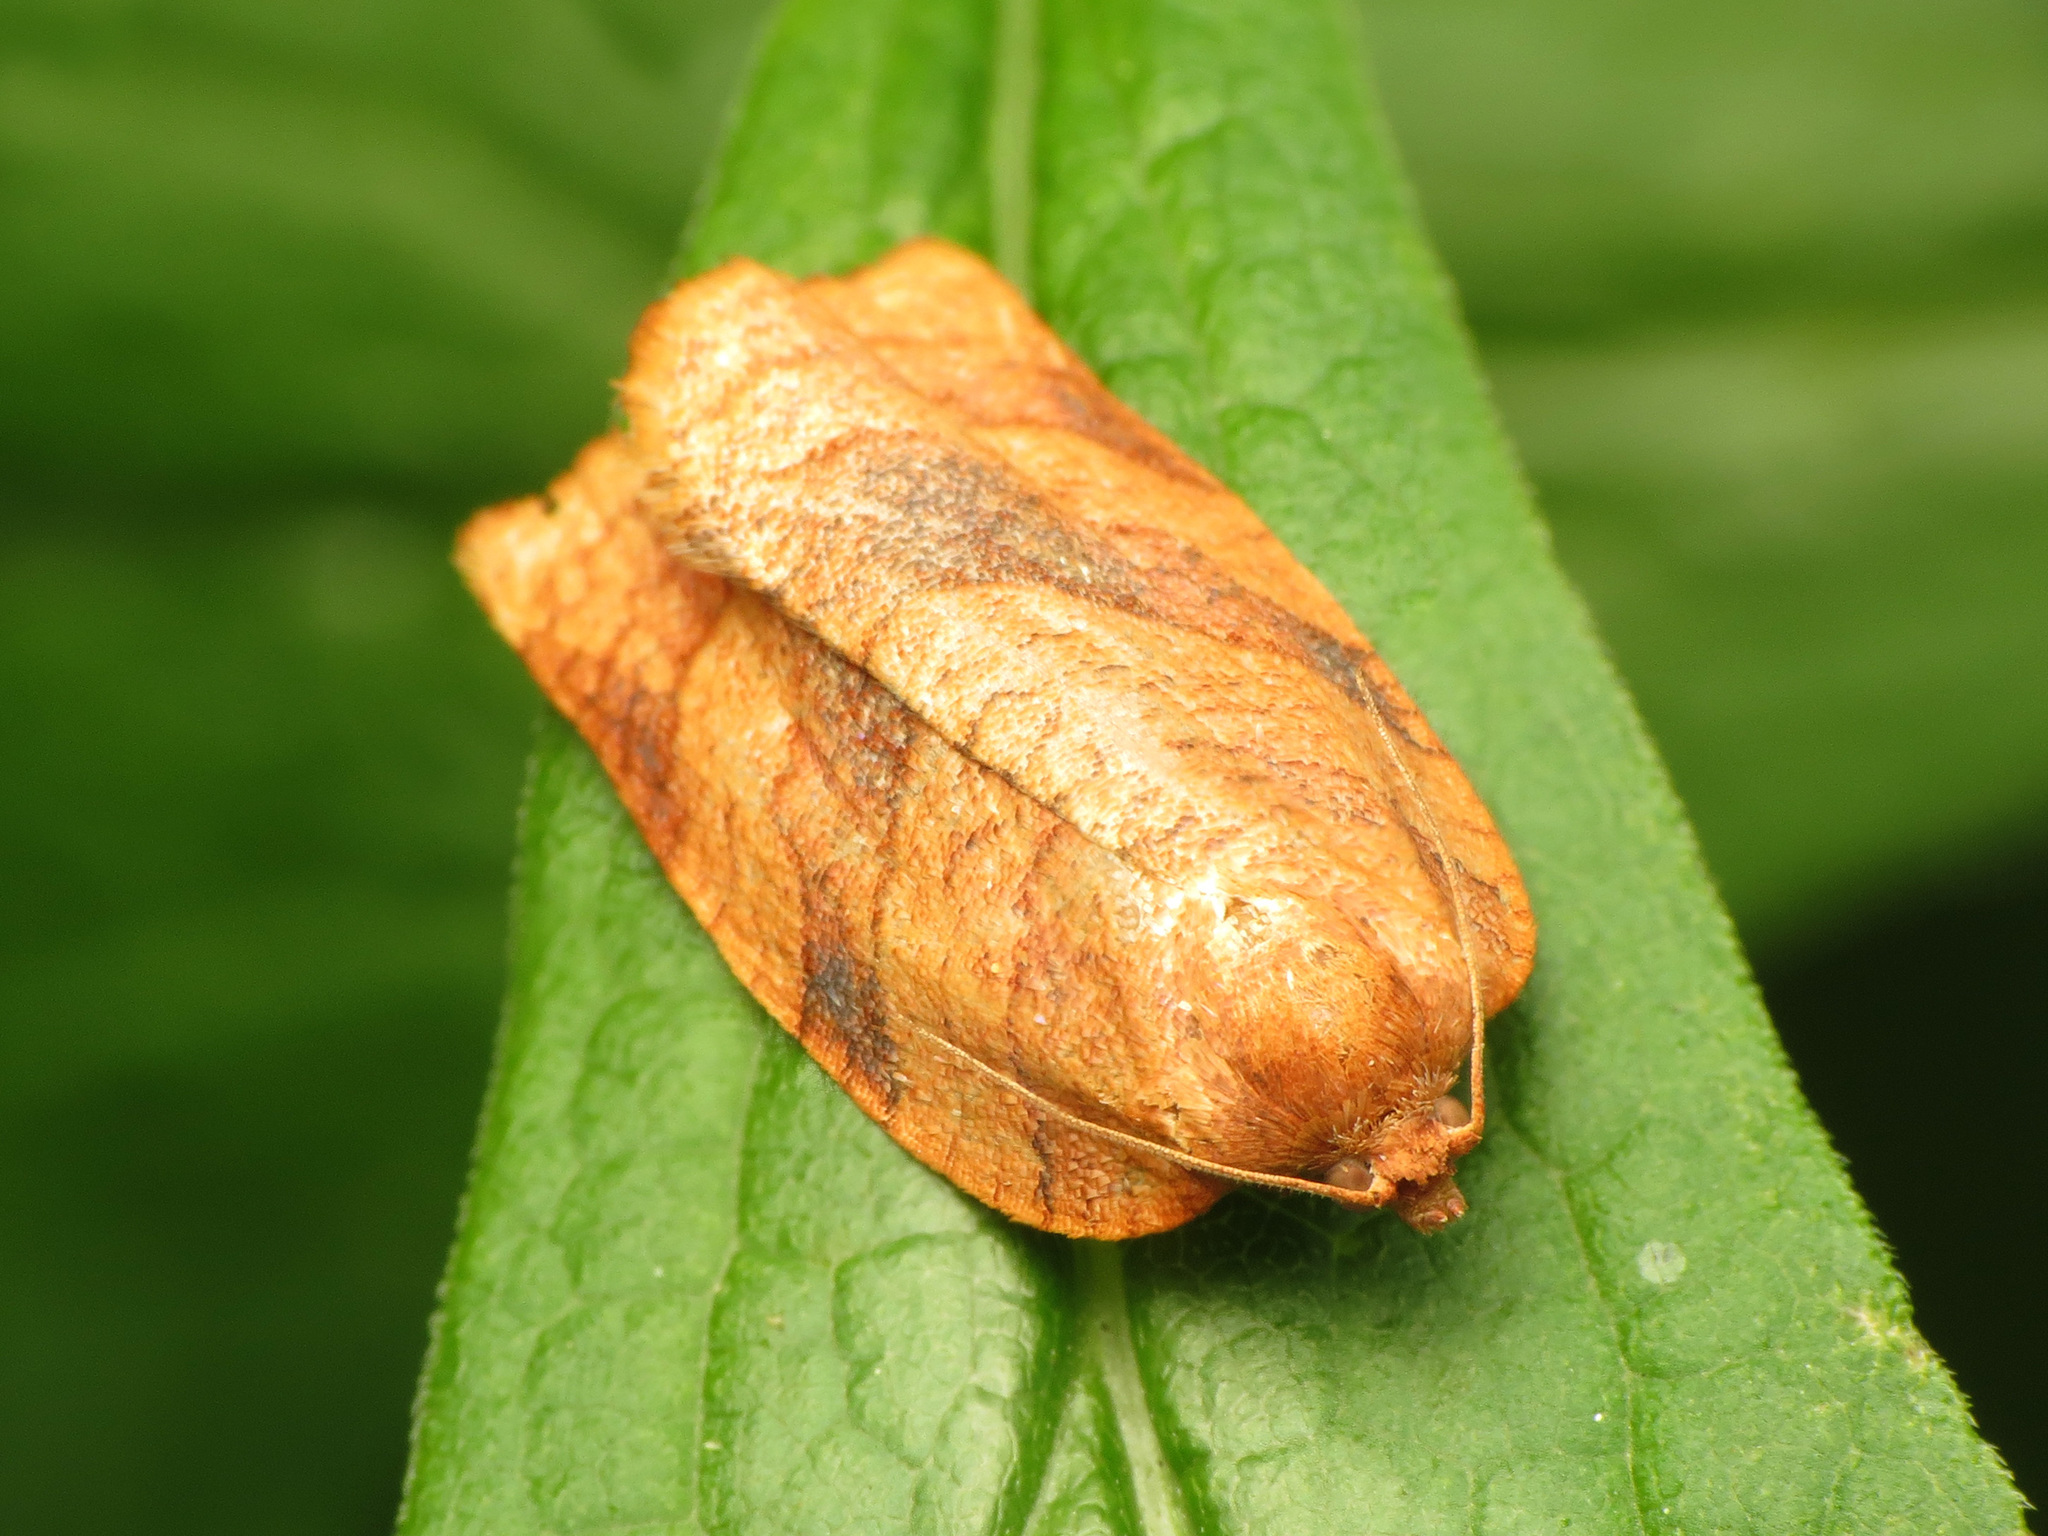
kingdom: Animalia
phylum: Arthropoda
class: Insecta
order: Lepidoptera
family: Tortricidae
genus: Choristoneura
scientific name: Choristoneura parallela
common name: Parallel-banded leafroller moth
